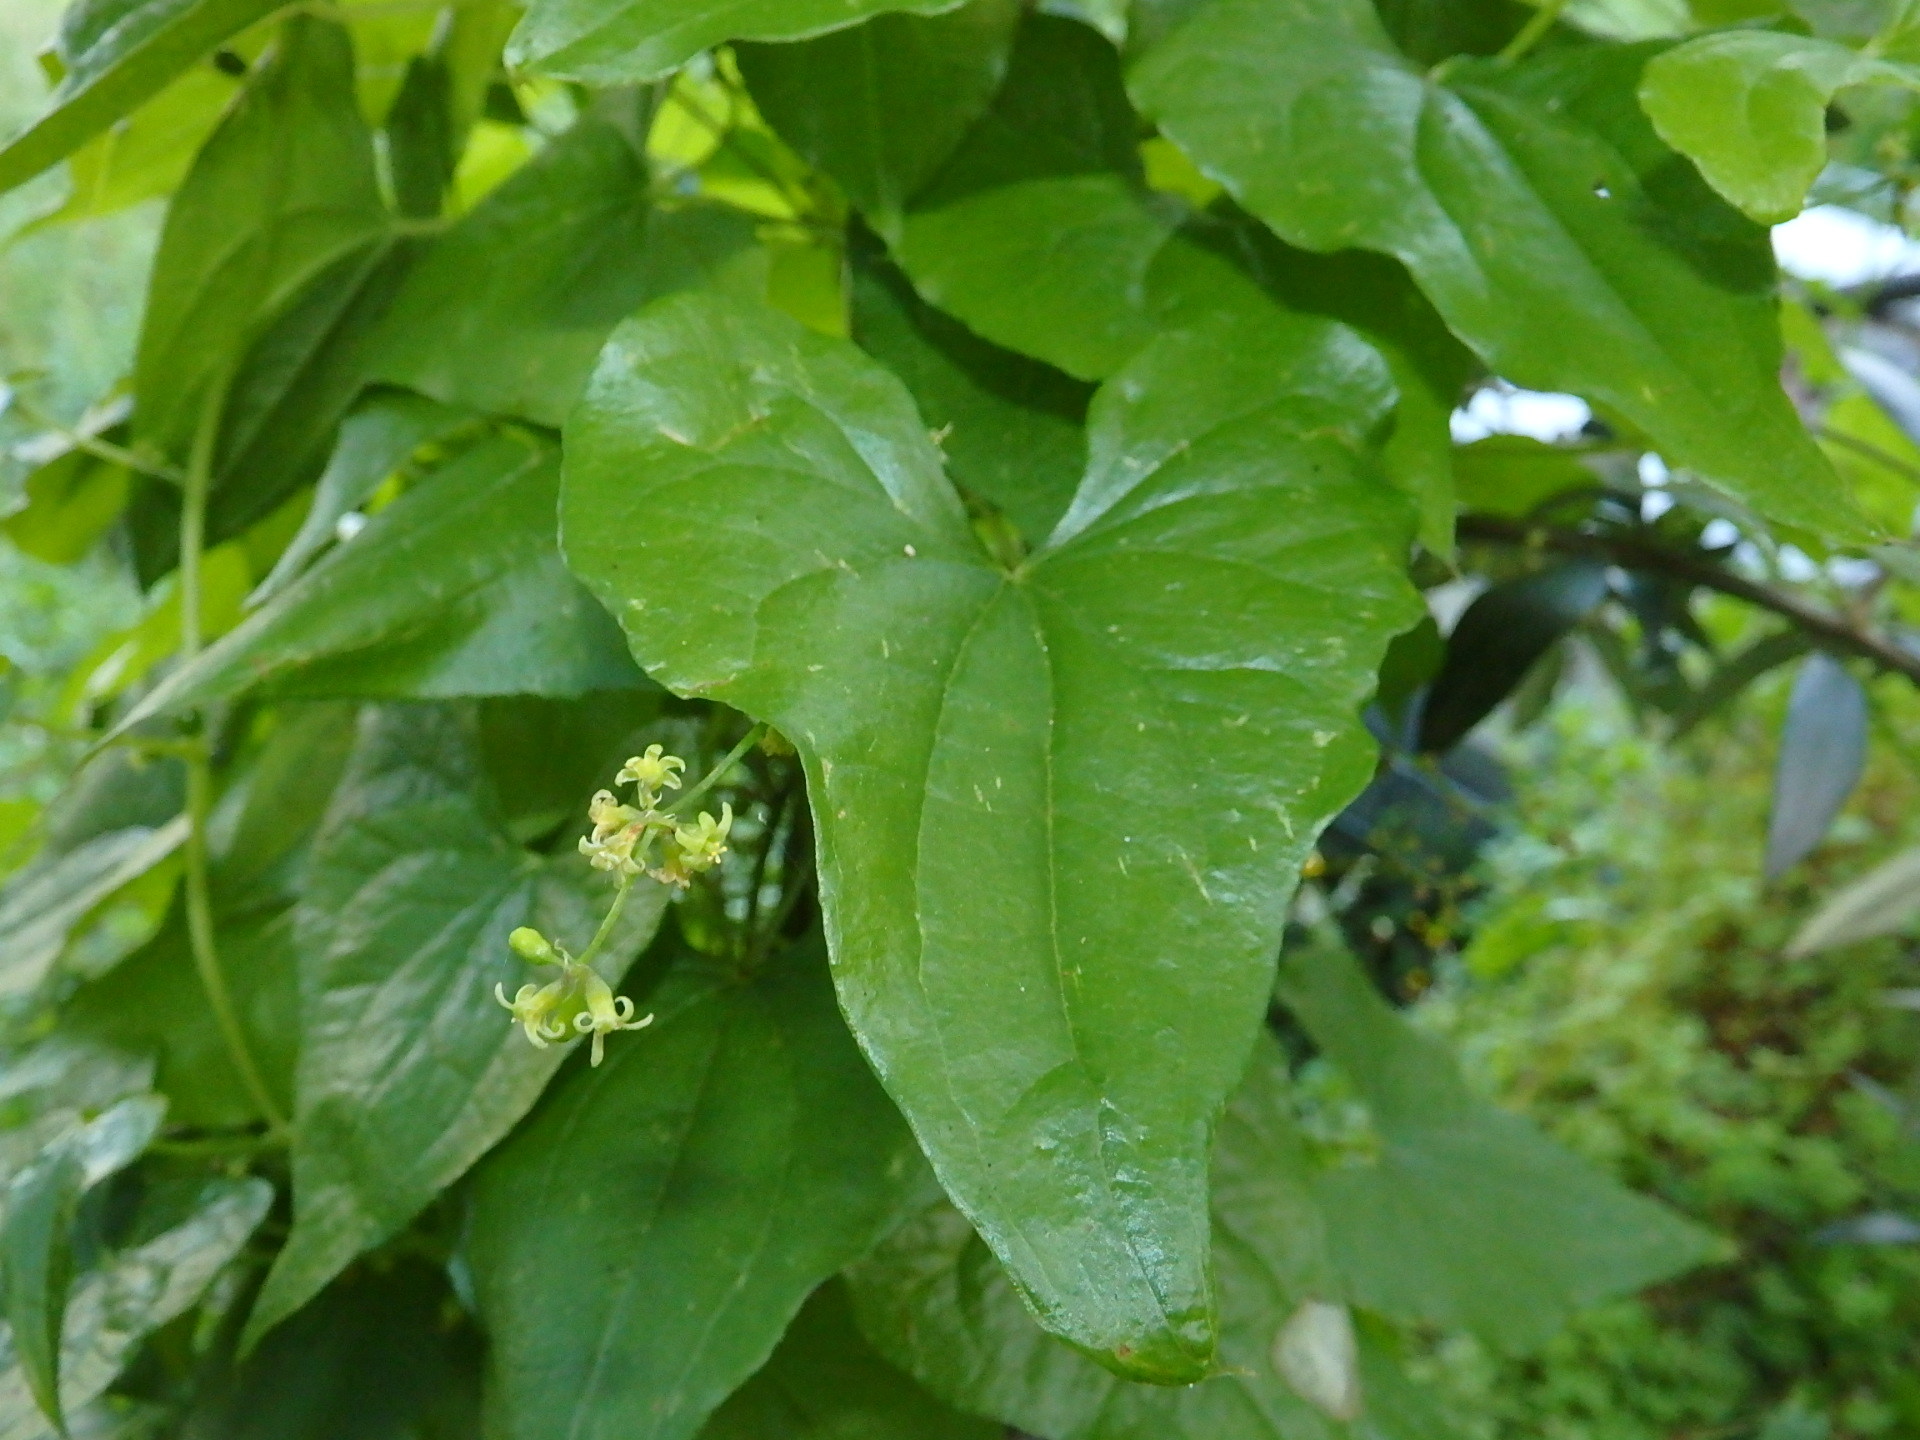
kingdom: Plantae
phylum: Tracheophyta
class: Liliopsida
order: Dioscoreales
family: Dioscoreaceae
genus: Dioscorea
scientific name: Dioscorea communis
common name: Black-bindweed
